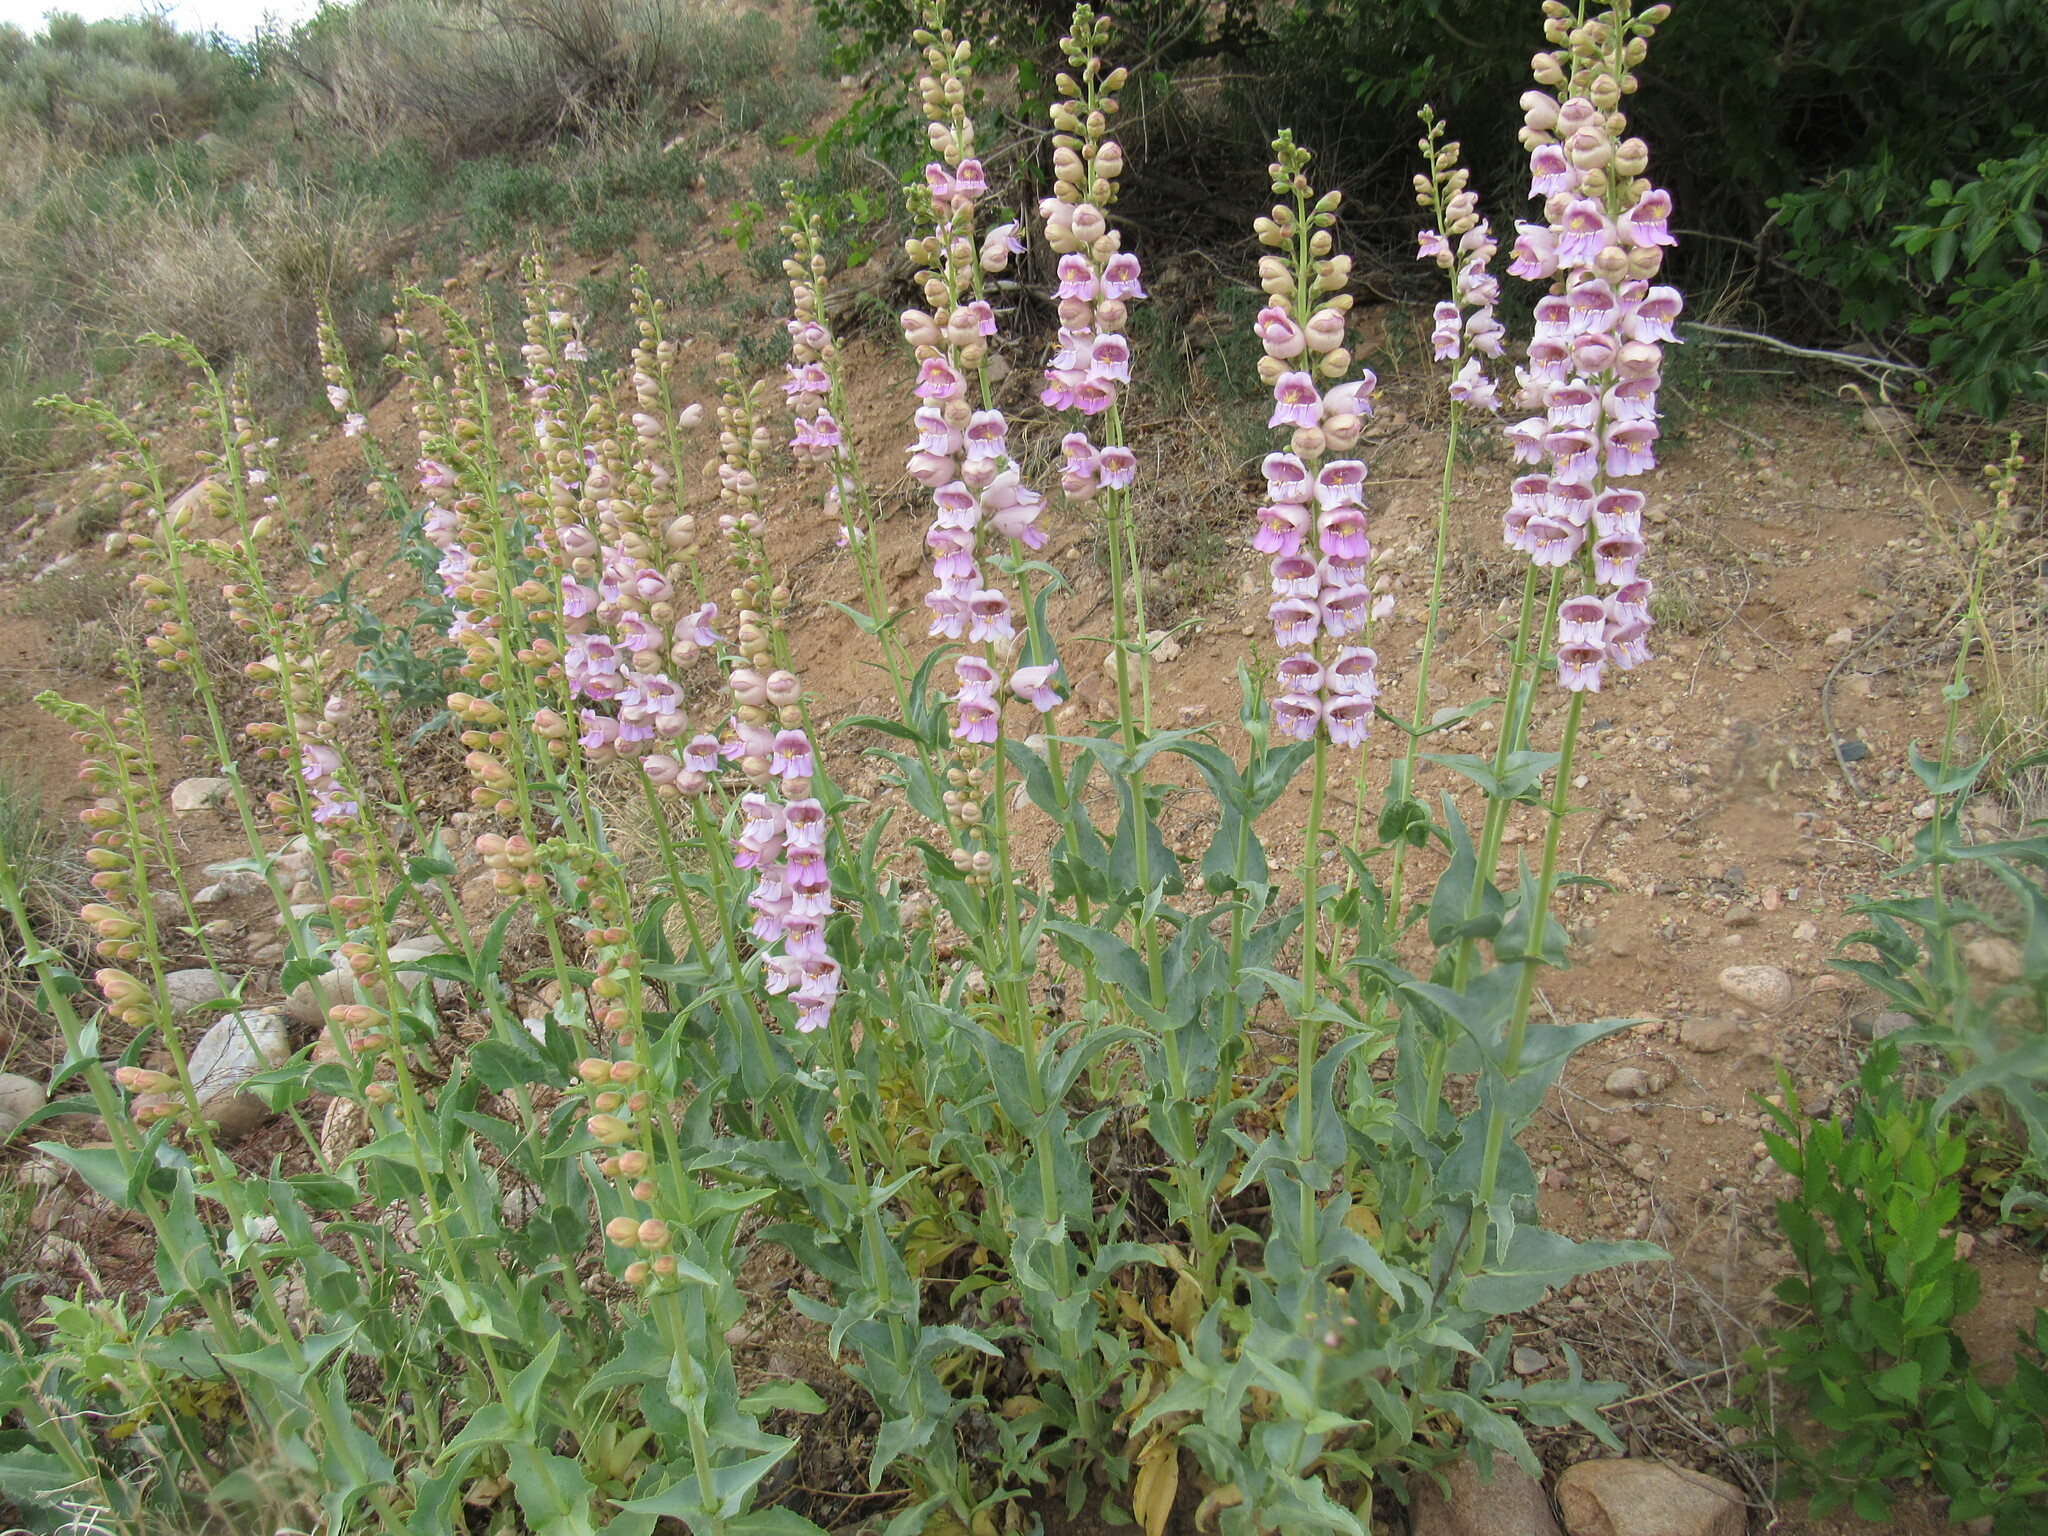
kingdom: Plantae
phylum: Tracheophyta
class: Magnoliopsida
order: Lamiales
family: Plantaginaceae
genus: Penstemon
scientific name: Penstemon palmeri
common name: Palmer penstemon
